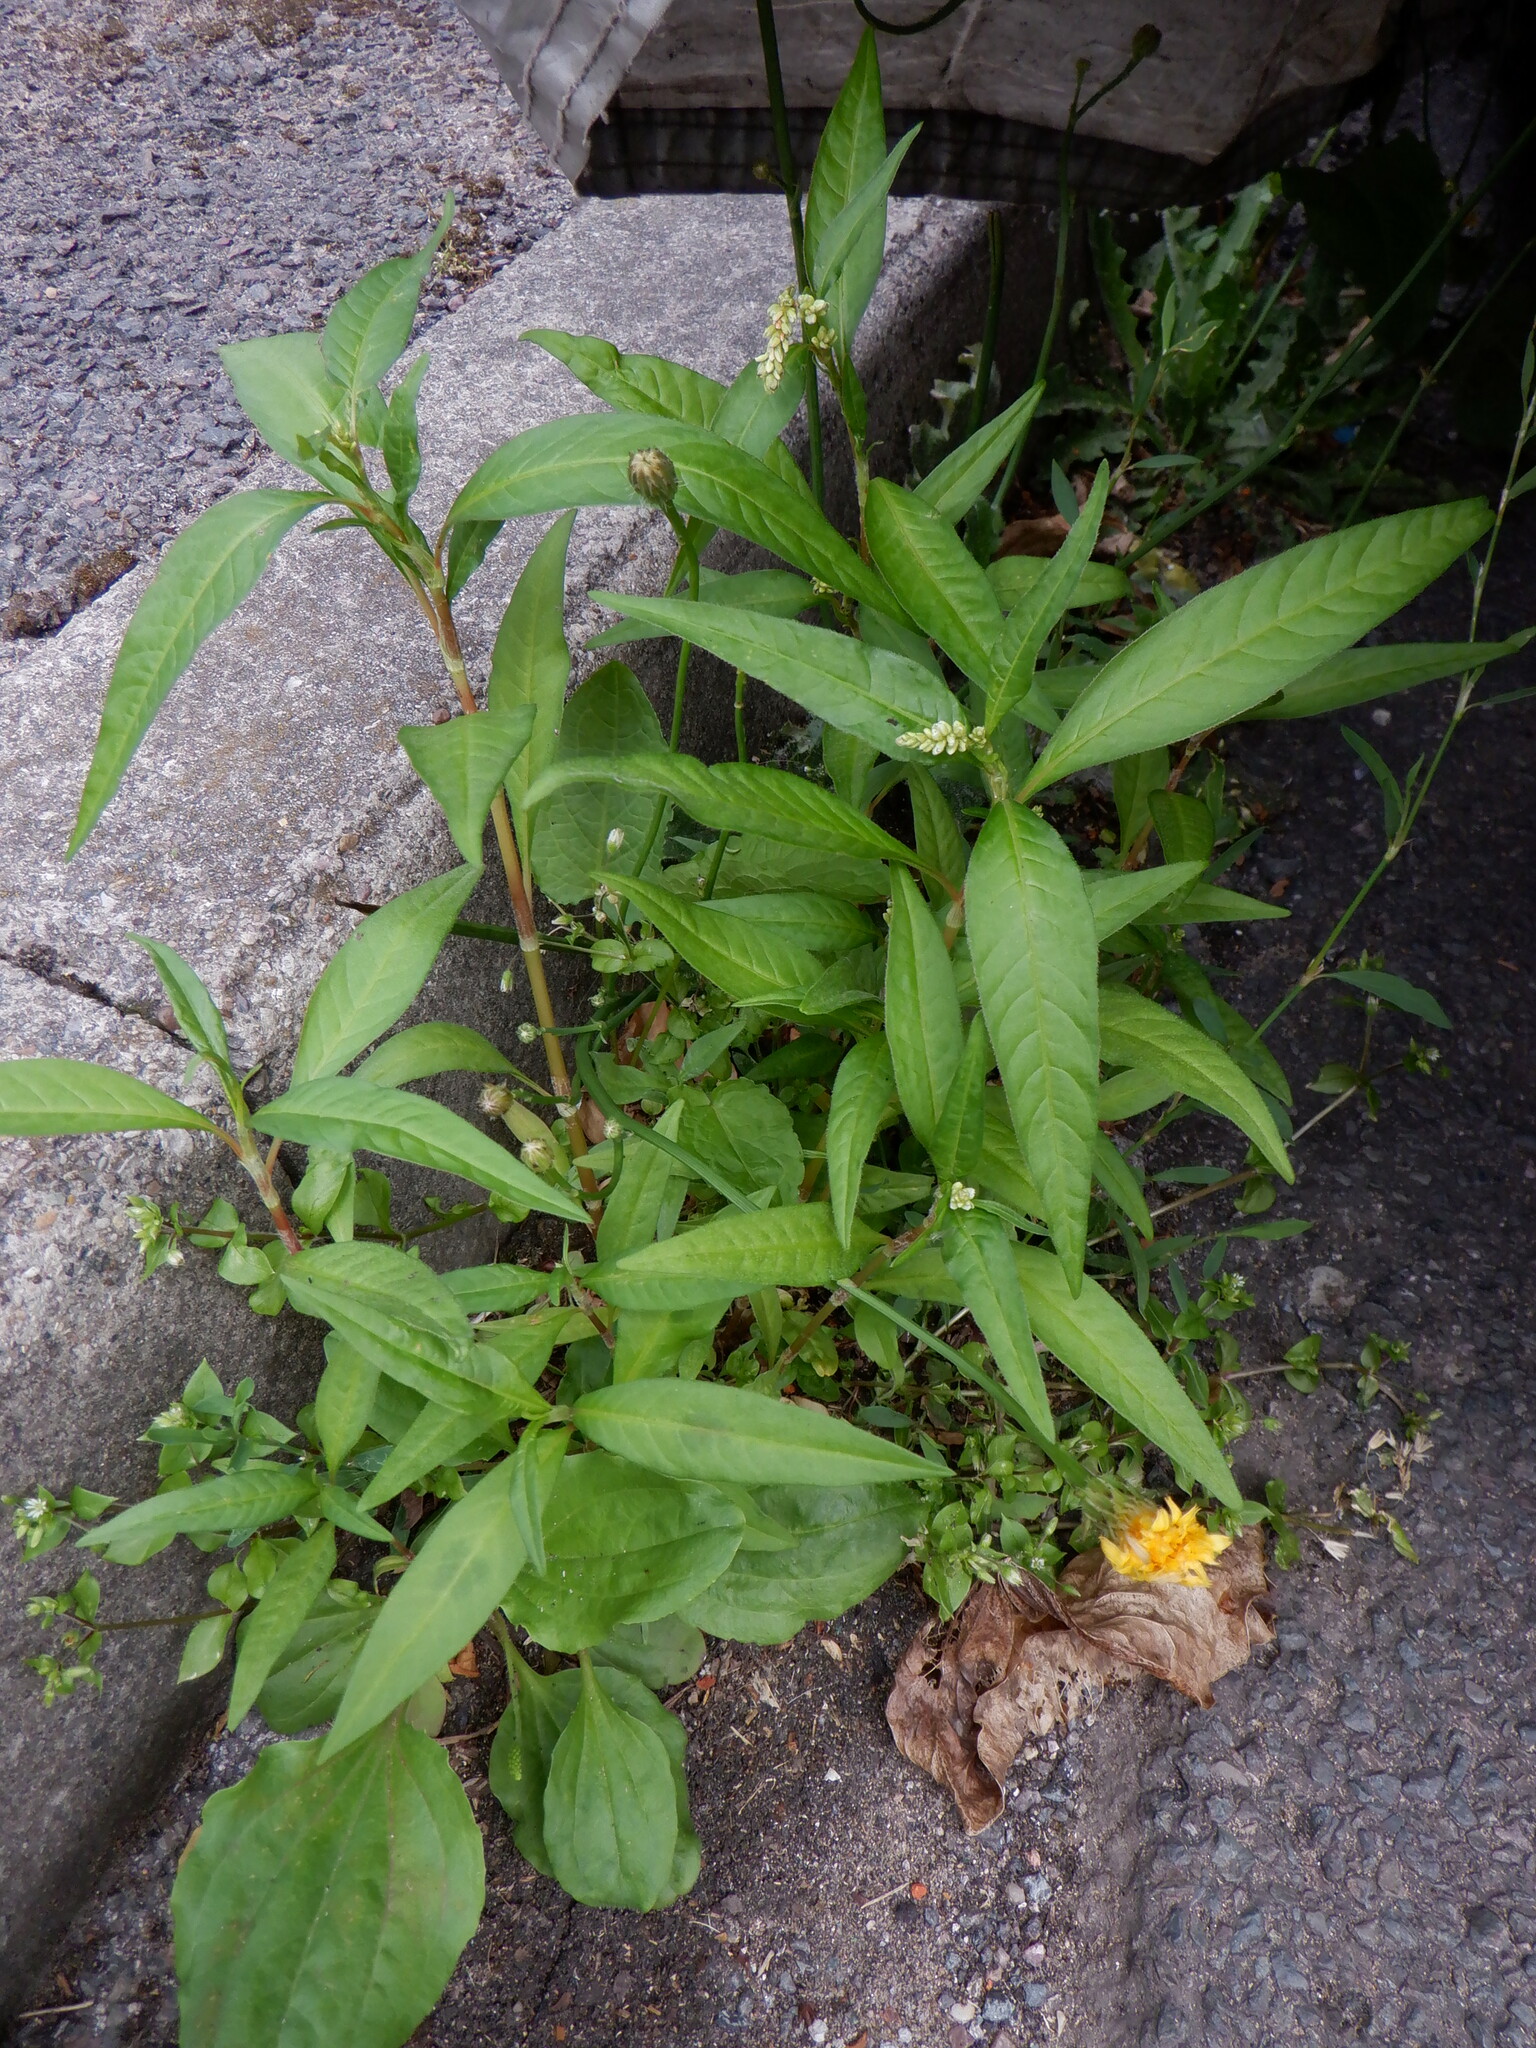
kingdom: Plantae
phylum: Tracheophyta
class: Magnoliopsida
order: Caryophyllales
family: Polygonaceae
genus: Persicaria
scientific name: Persicaria maculosa
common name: Redshank
